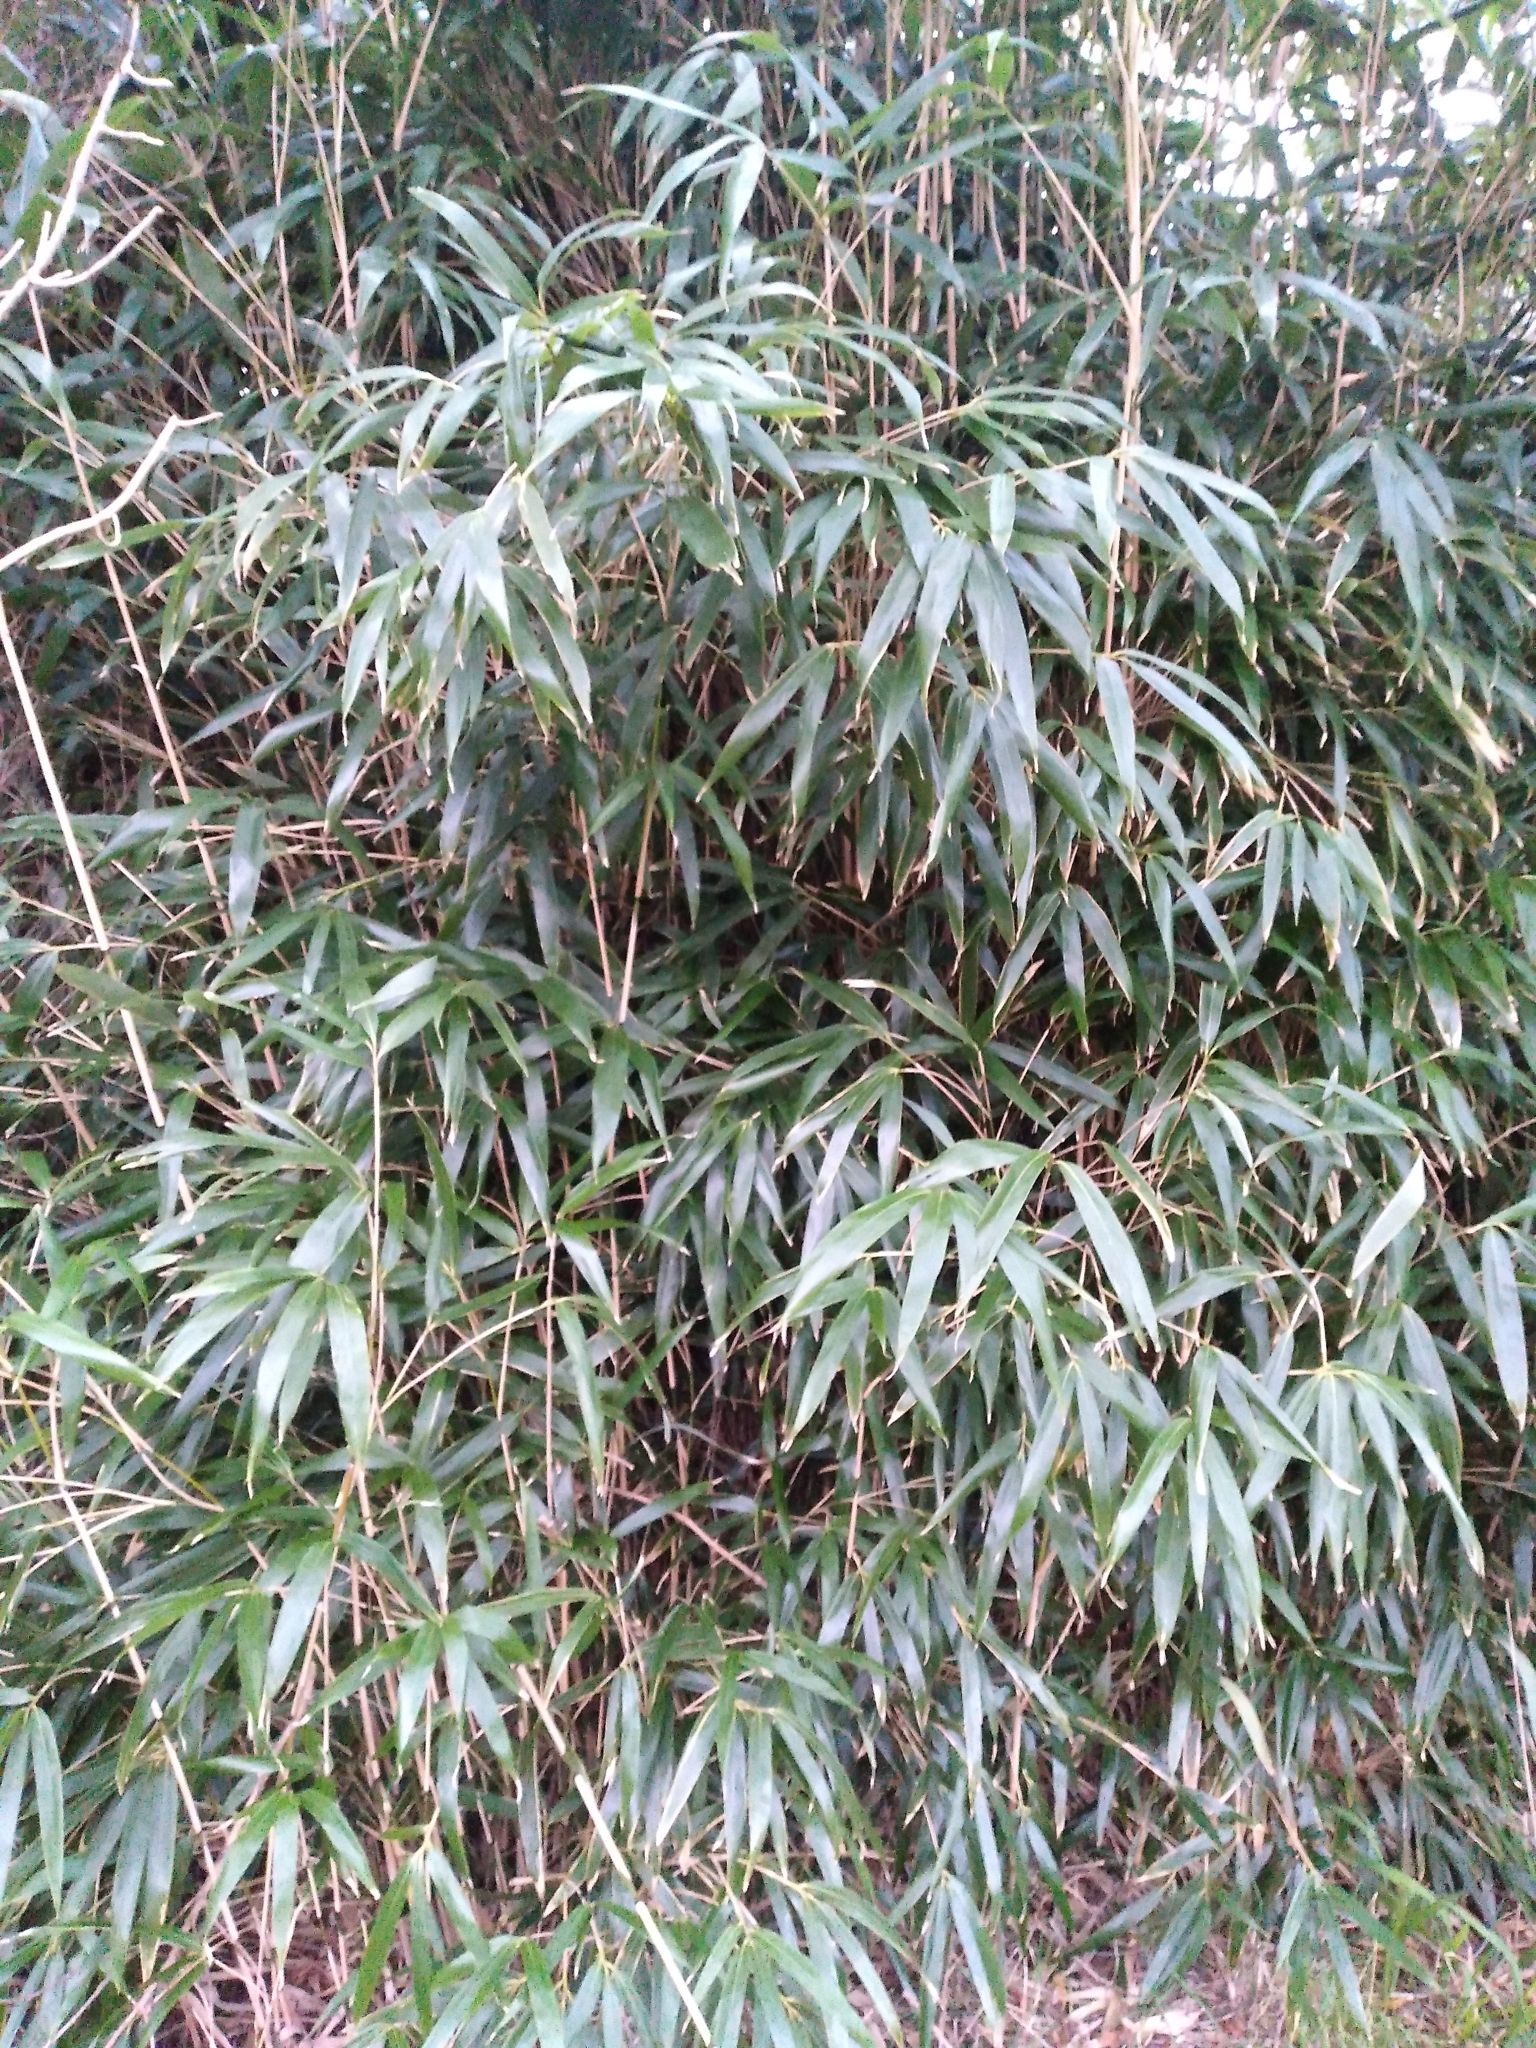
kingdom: Plantae
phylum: Tracheophyta
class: Liliopsida
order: Poales
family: Poaceae
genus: Pseudosasa
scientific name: Pseudosasa japonica
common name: Arrow bamboo
